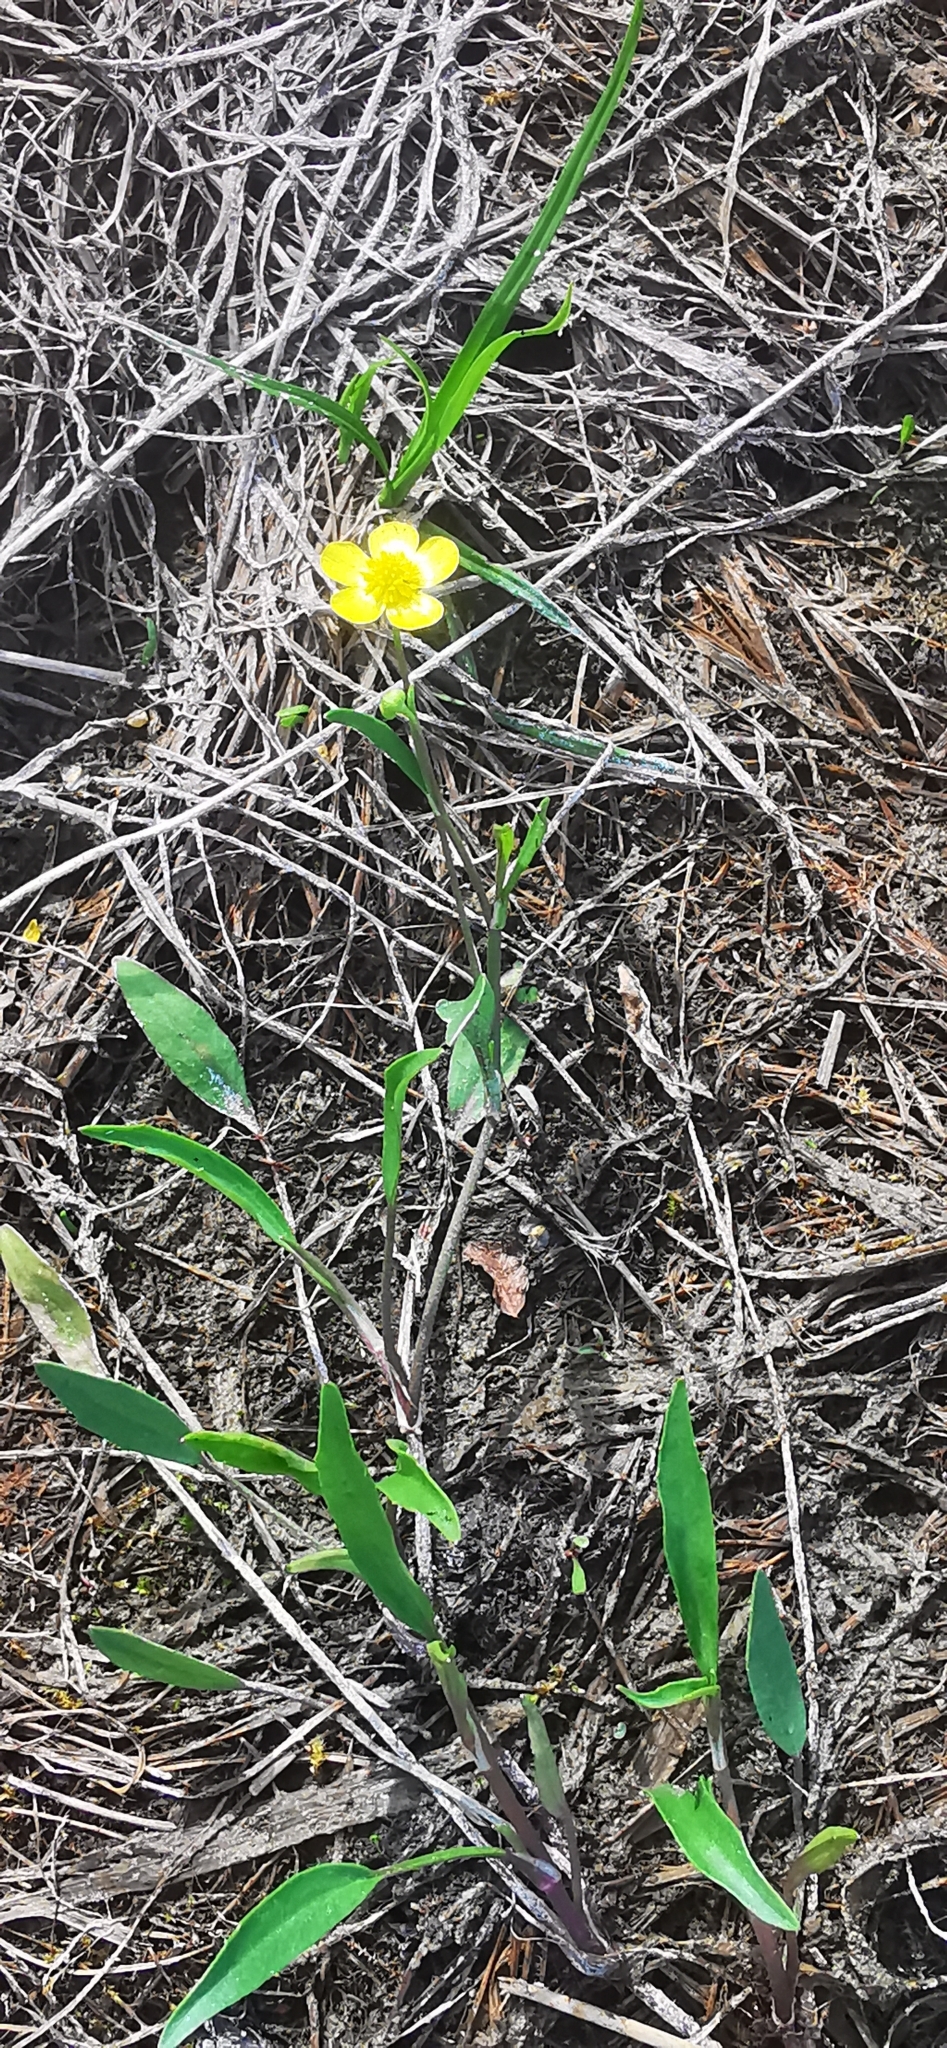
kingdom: Plantae
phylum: Tracheophyta
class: Magnoliopsida
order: Ranunculales
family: Ranunculaceae
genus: Ranunculus
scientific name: Ranunculus flammula
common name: Lesser spearwort
